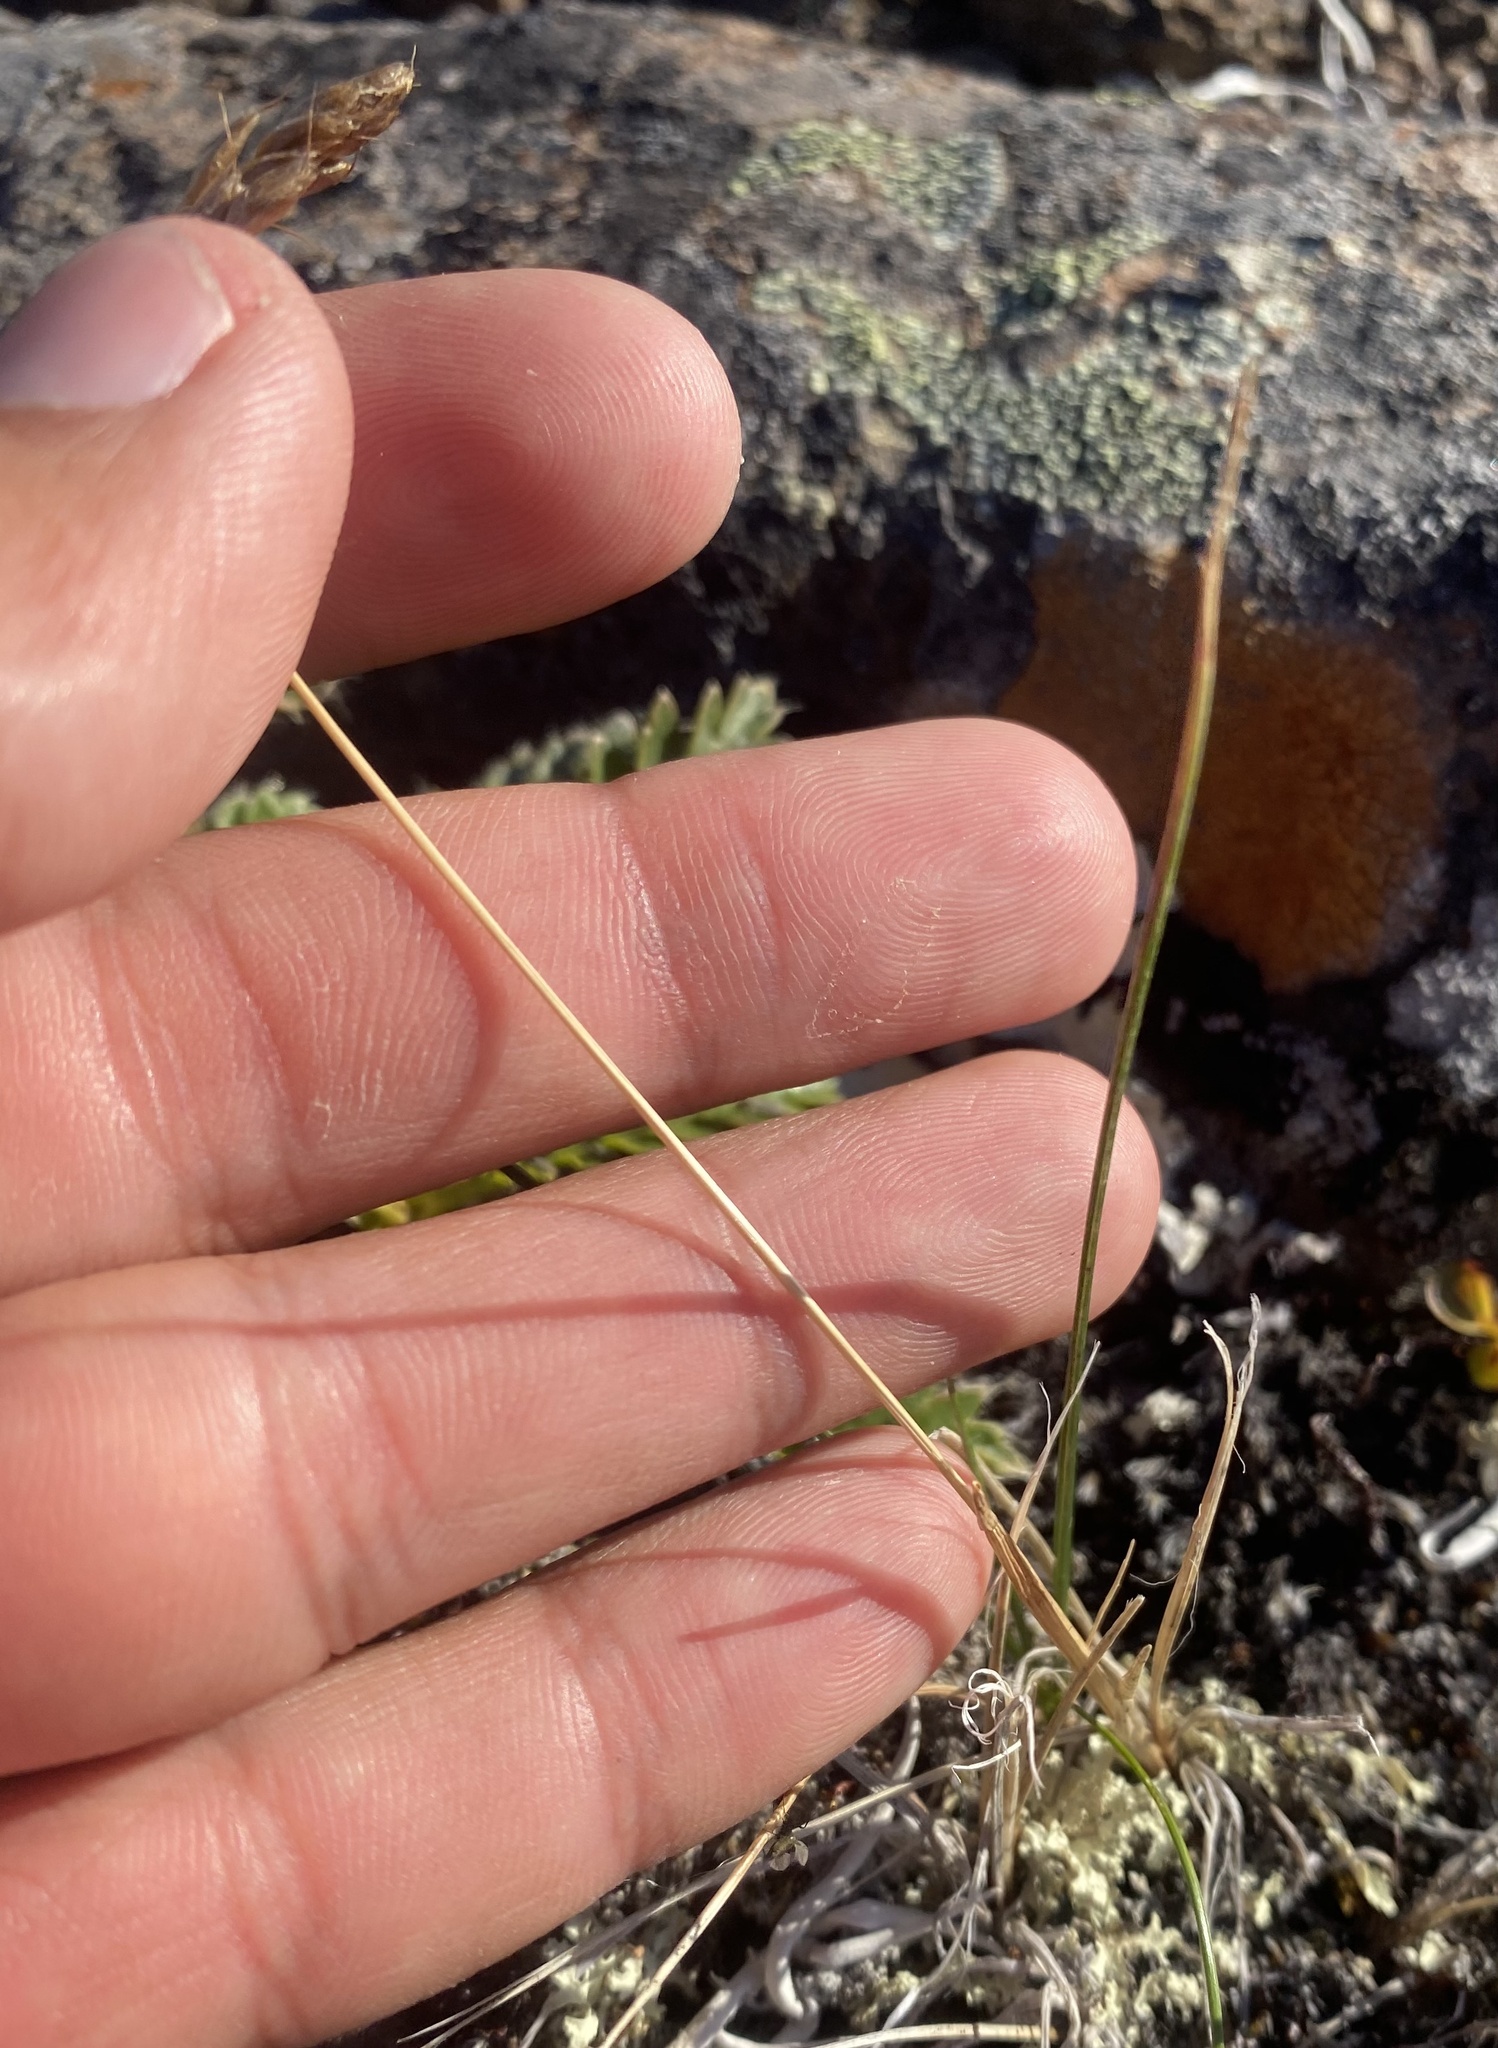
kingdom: Plantae
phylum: Tracheophyta
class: Liliopsida
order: Poales
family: Poaceae
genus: Anthoxanthum
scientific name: Anthoxanthum monticola
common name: Alpine sweetgrass
